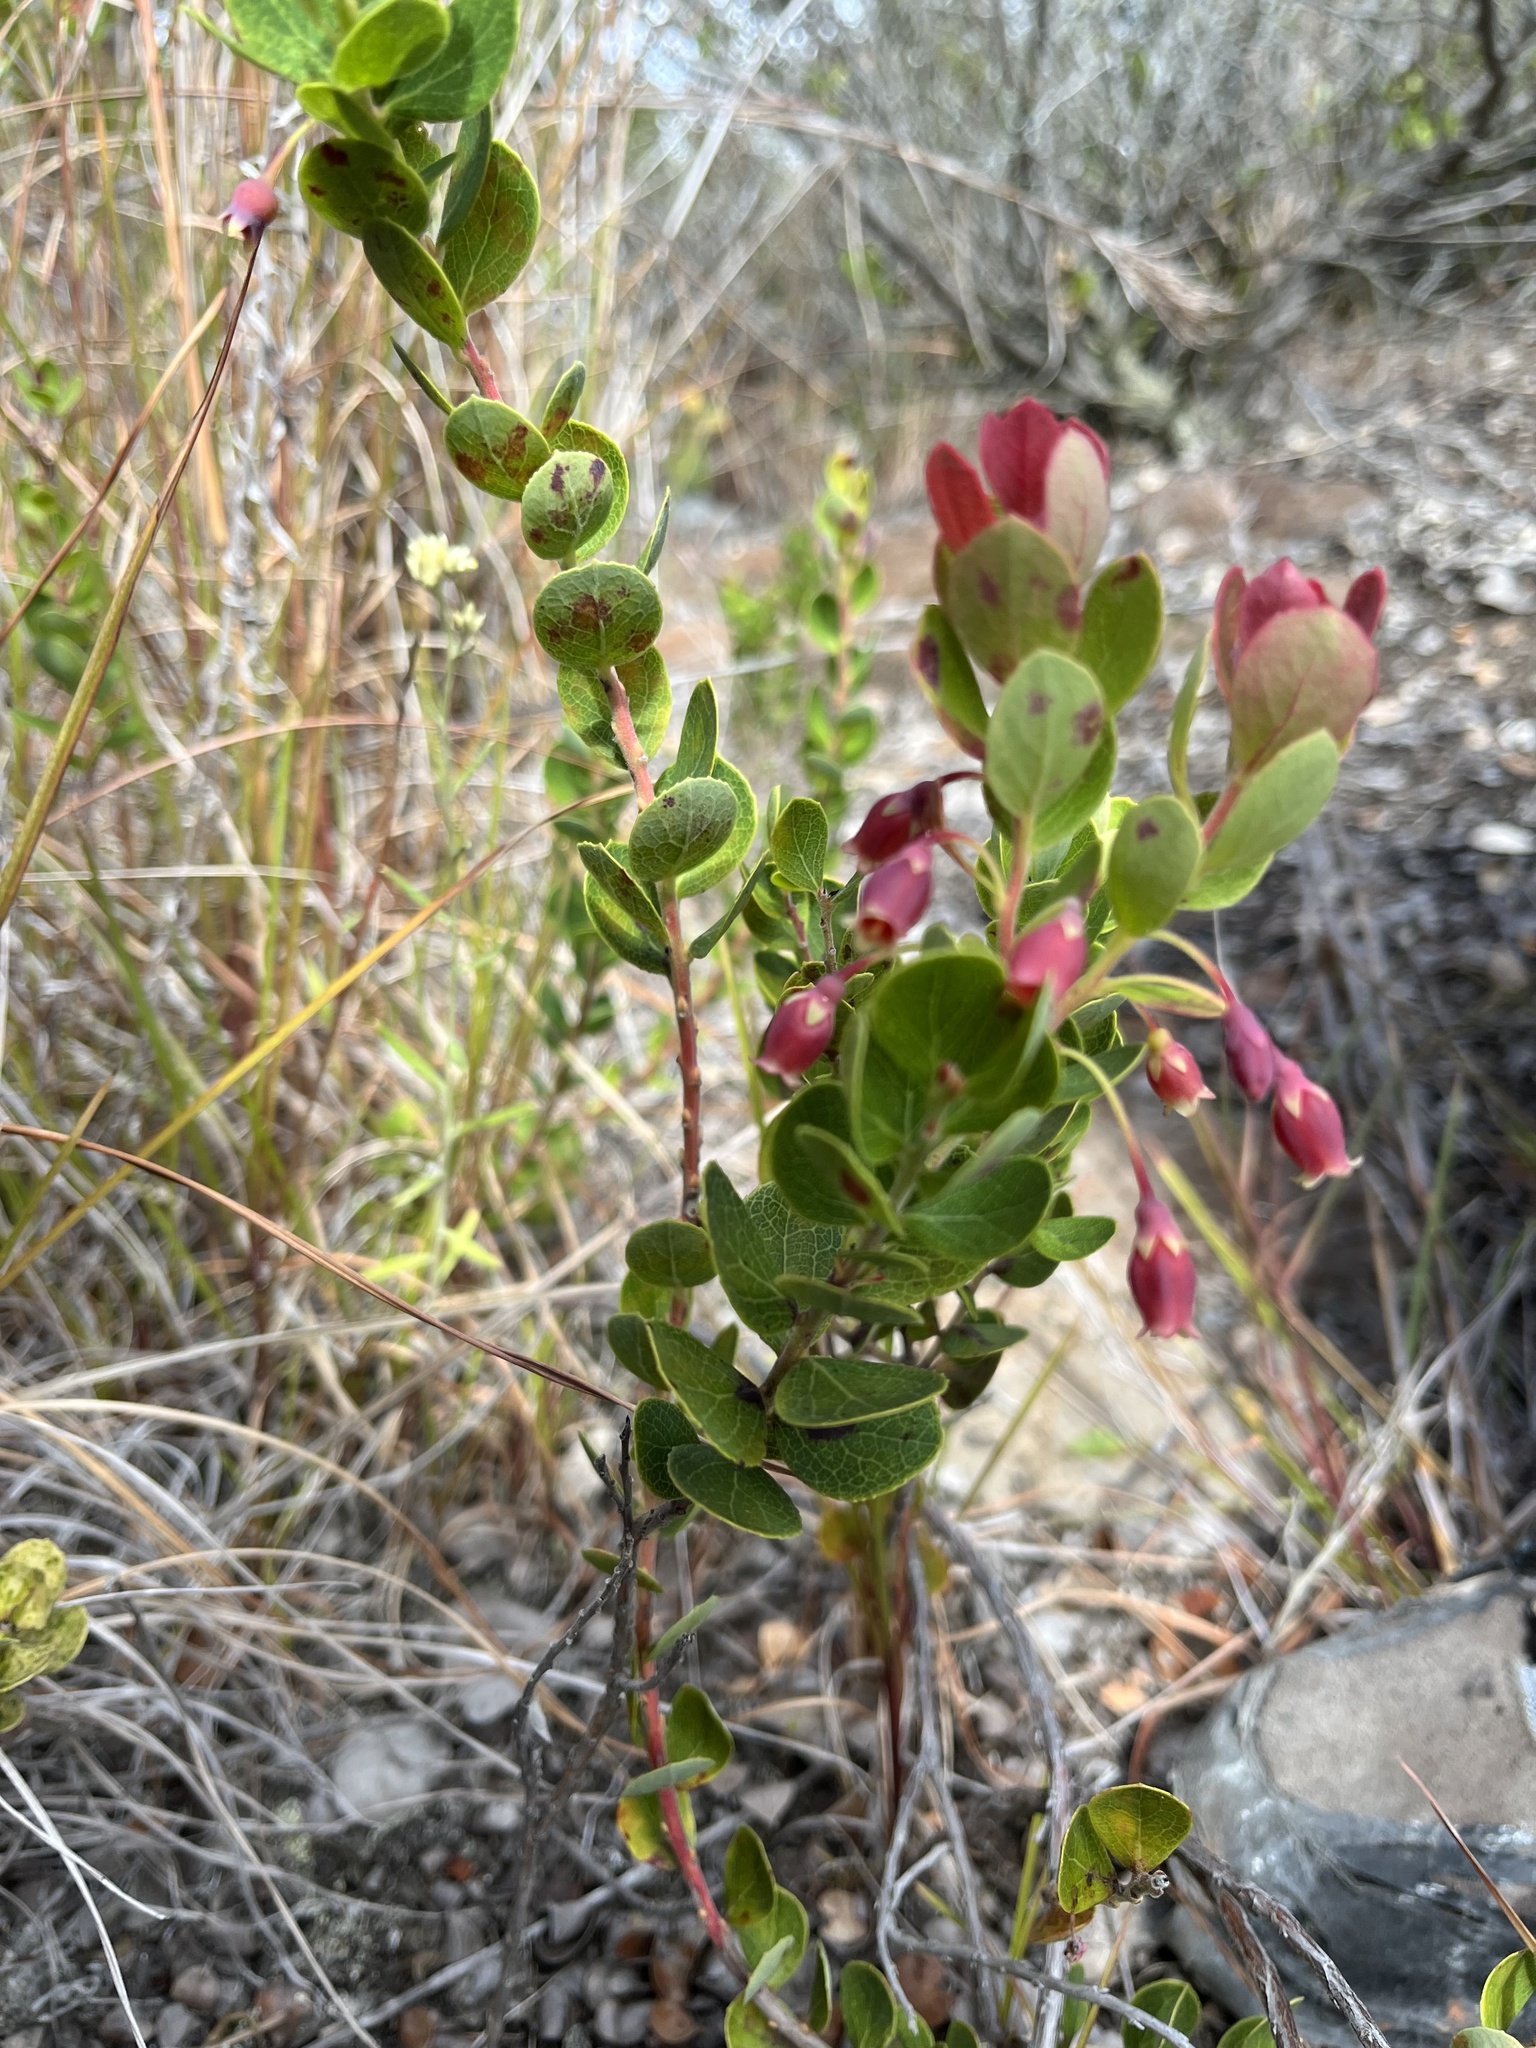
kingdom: Plantae
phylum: Tracheophyta
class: Magnoliopsida
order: Ericales
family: Ericaceae
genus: Vaccinium
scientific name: Vaccinium reticulatum
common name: Ohelo
